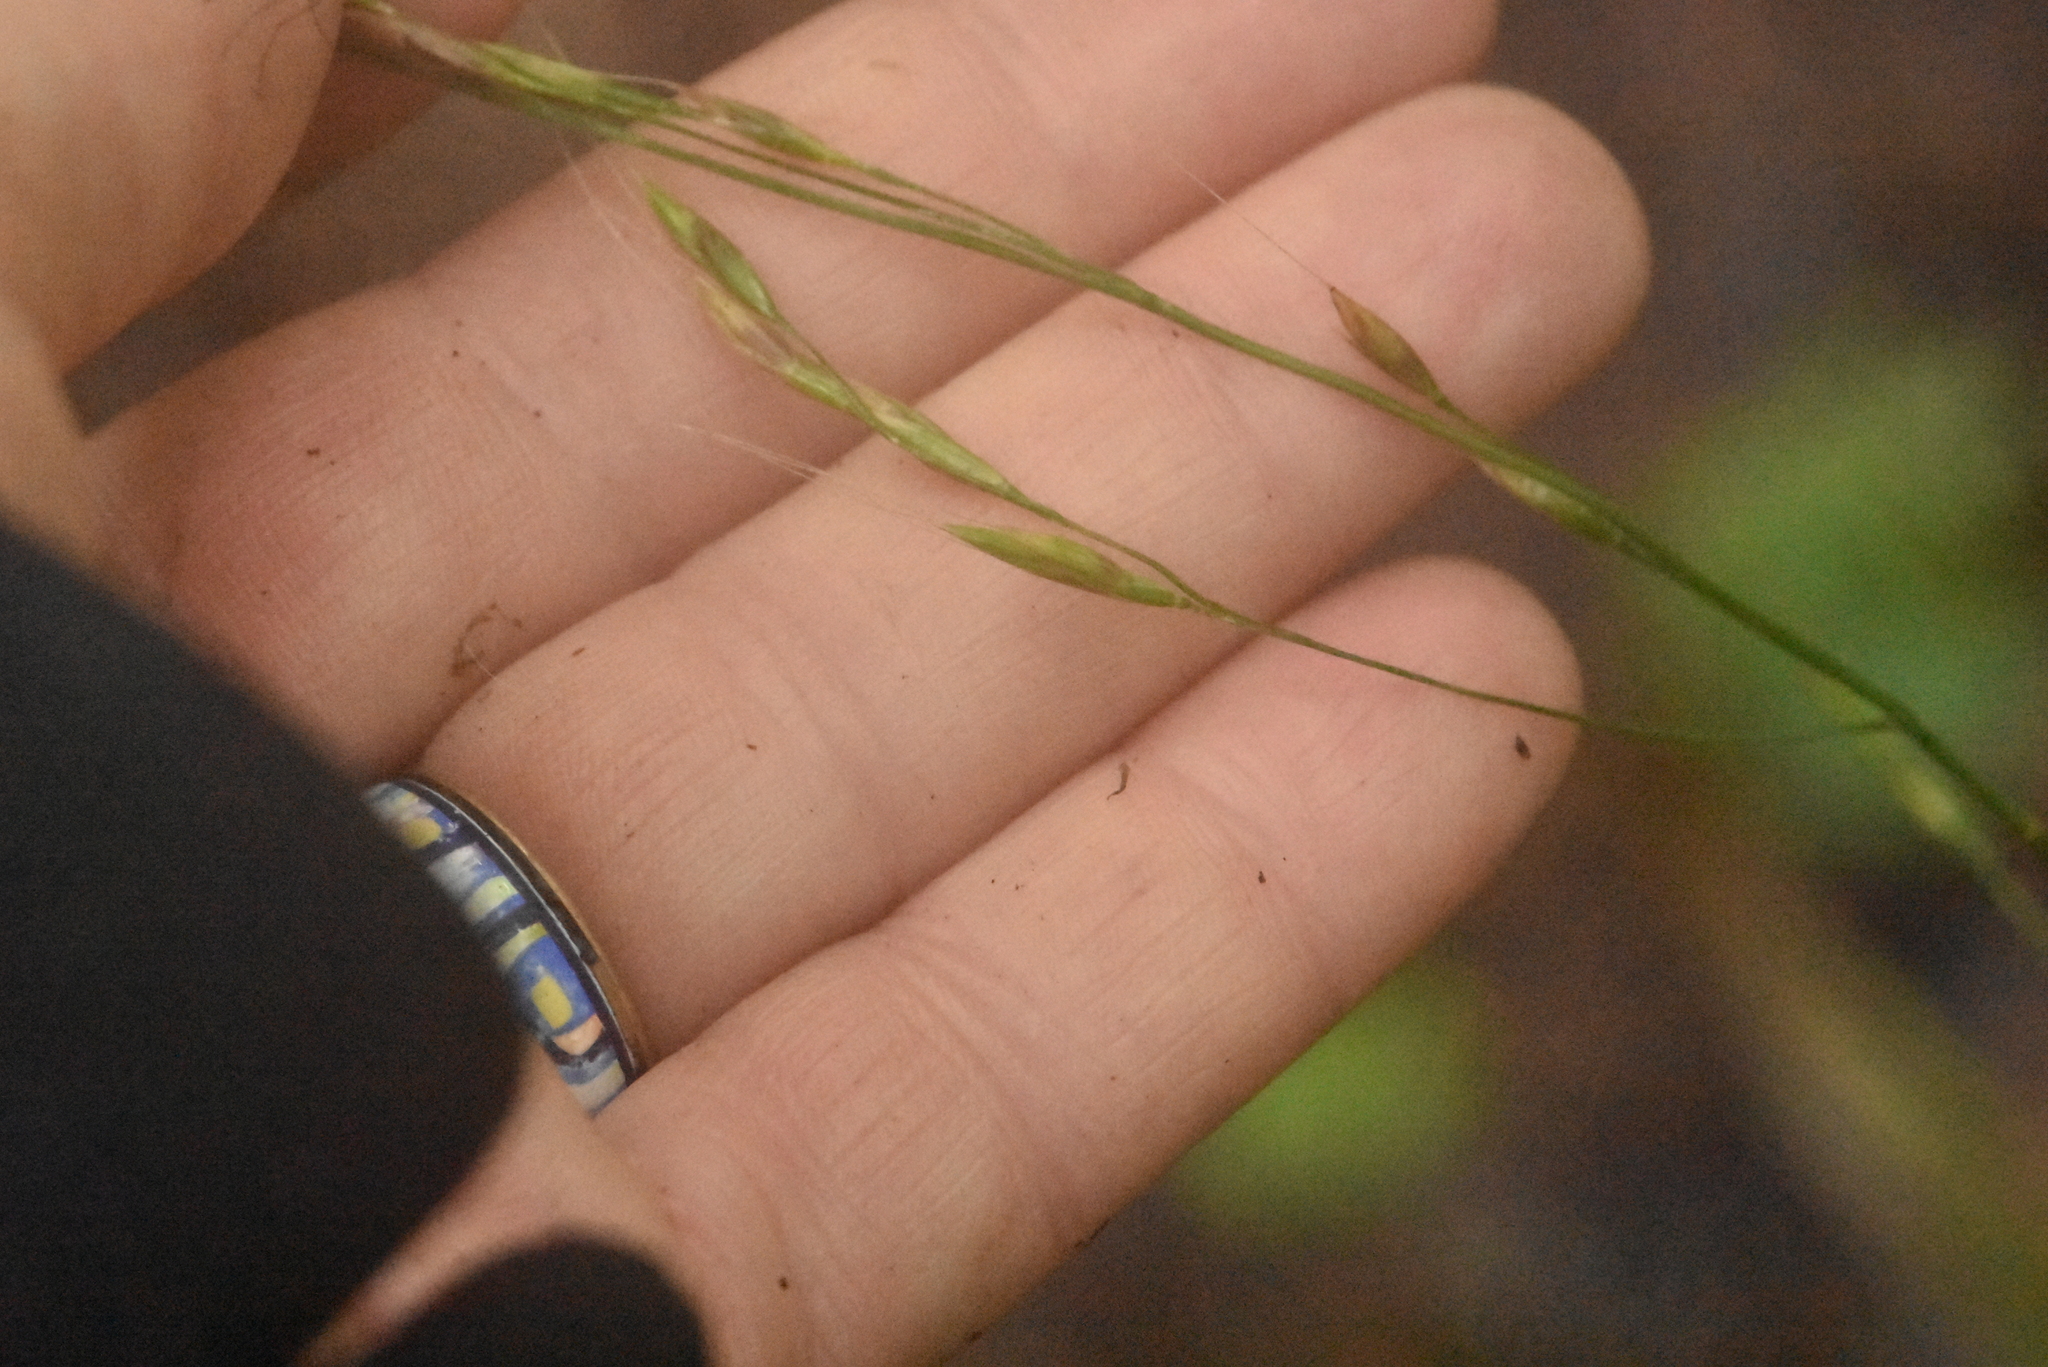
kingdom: Plantae
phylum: Tracheophyta
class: Liliopsida
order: Poales
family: Poaceae
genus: Lolium
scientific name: Lolium giganteum
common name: Giant fescue
